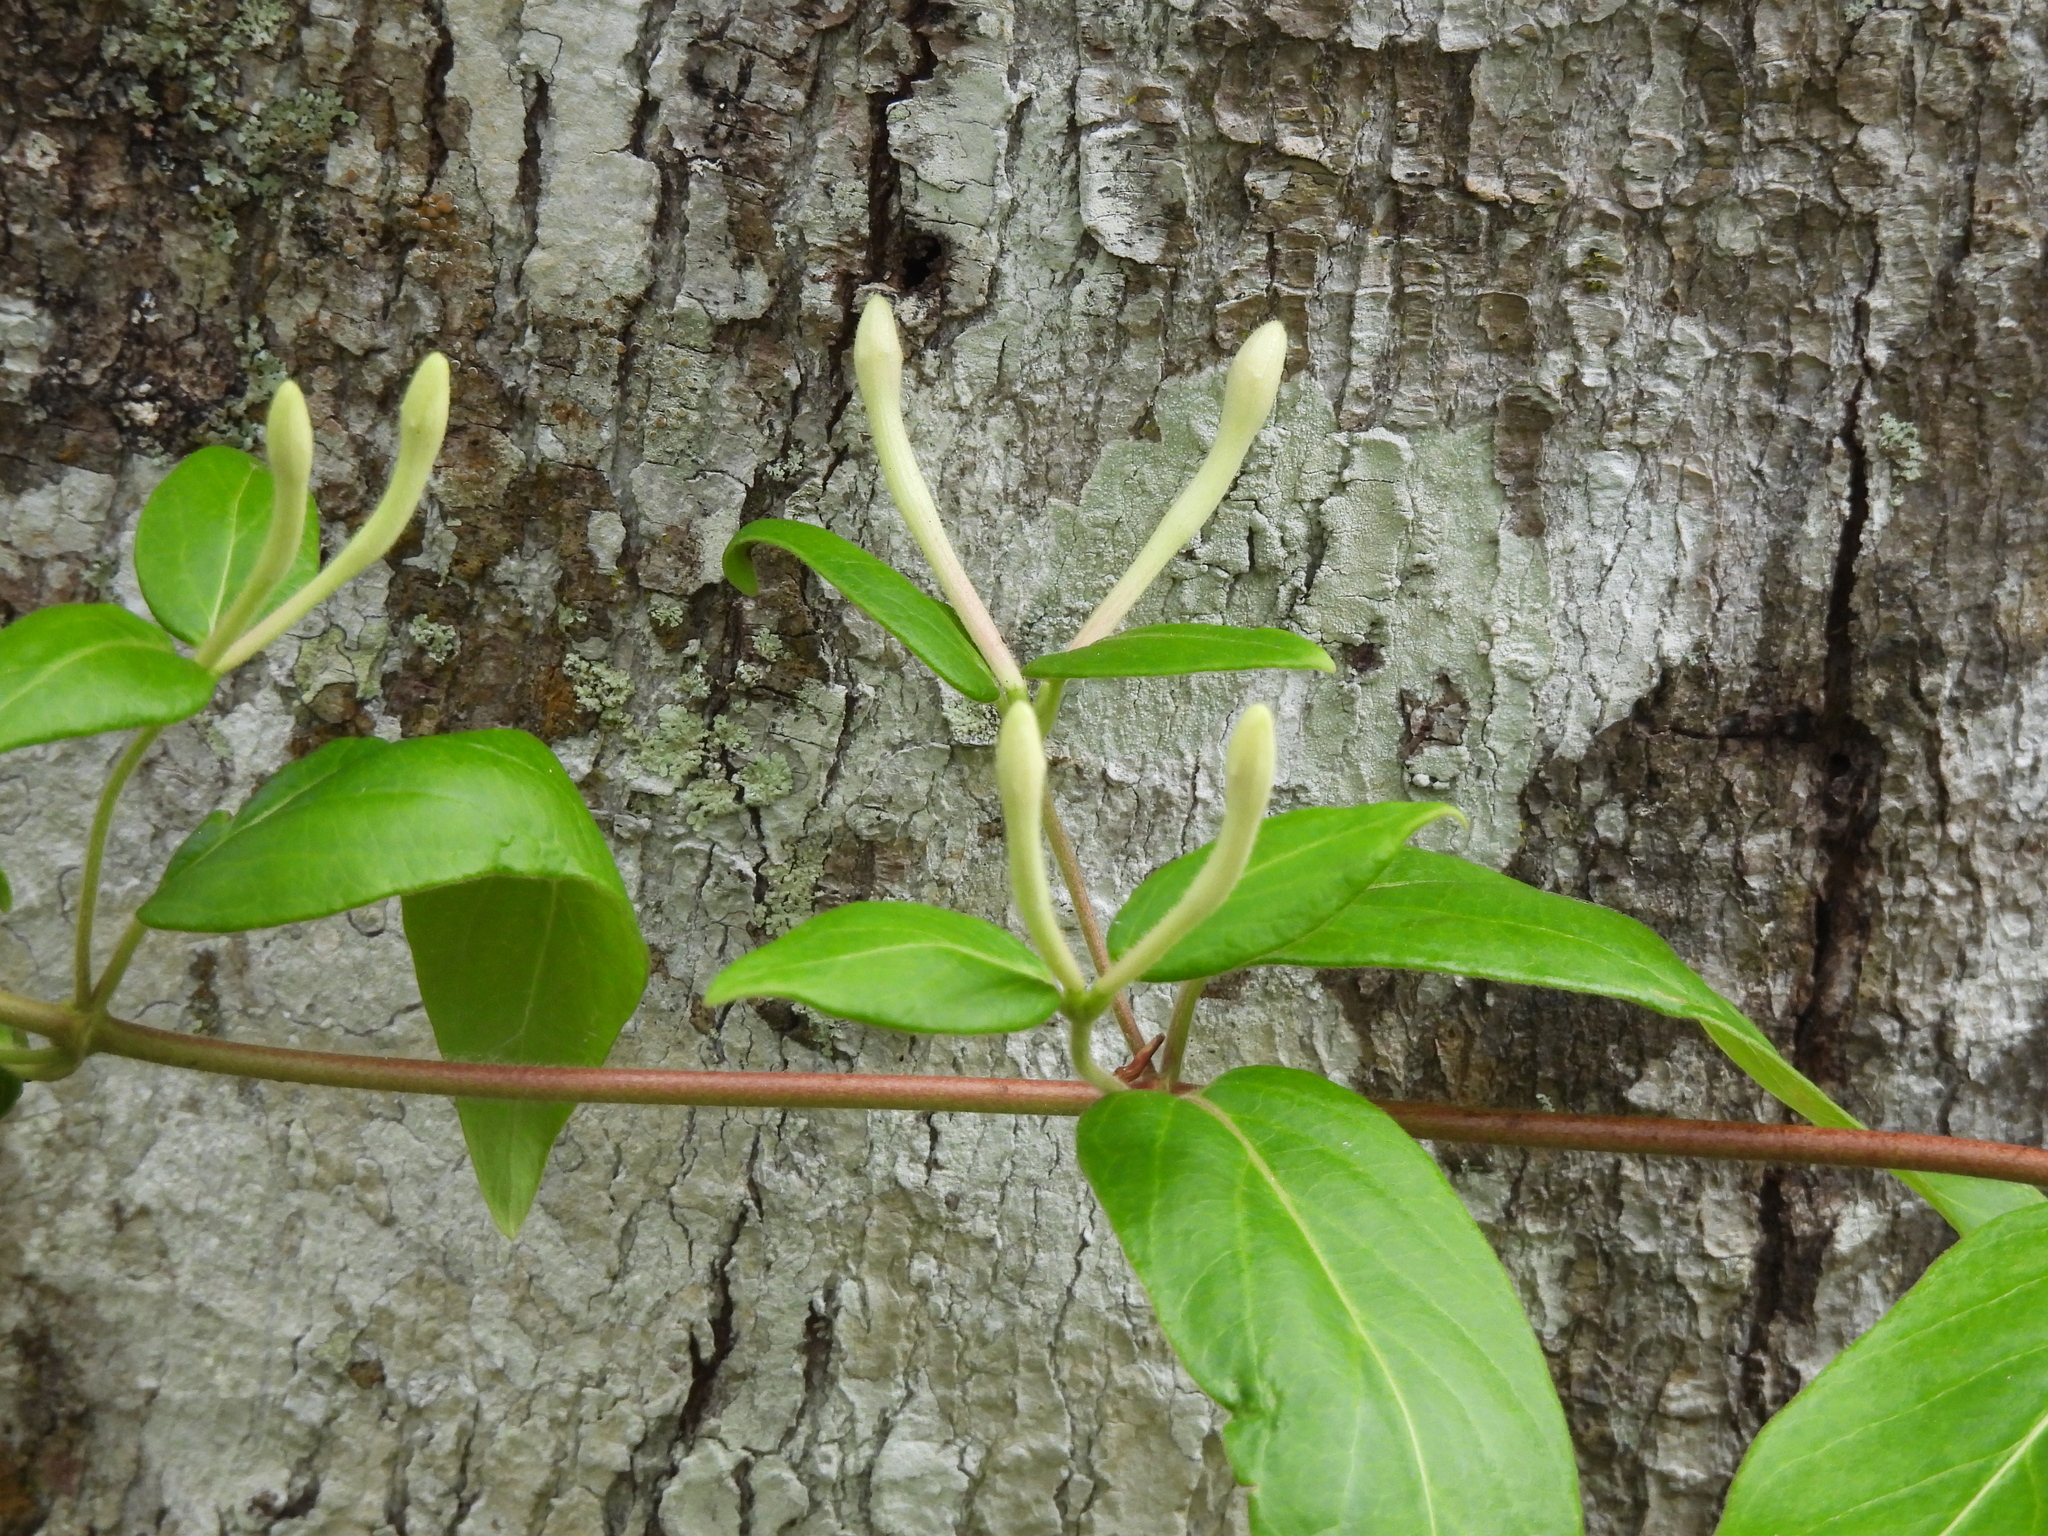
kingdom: Plantae
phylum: Tracheophyta
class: Magnoliopsida
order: Dipsacales
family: Caprifoliaceae
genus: Lonicera
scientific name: Lonicera japonica
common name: Japanese honeysuckle
